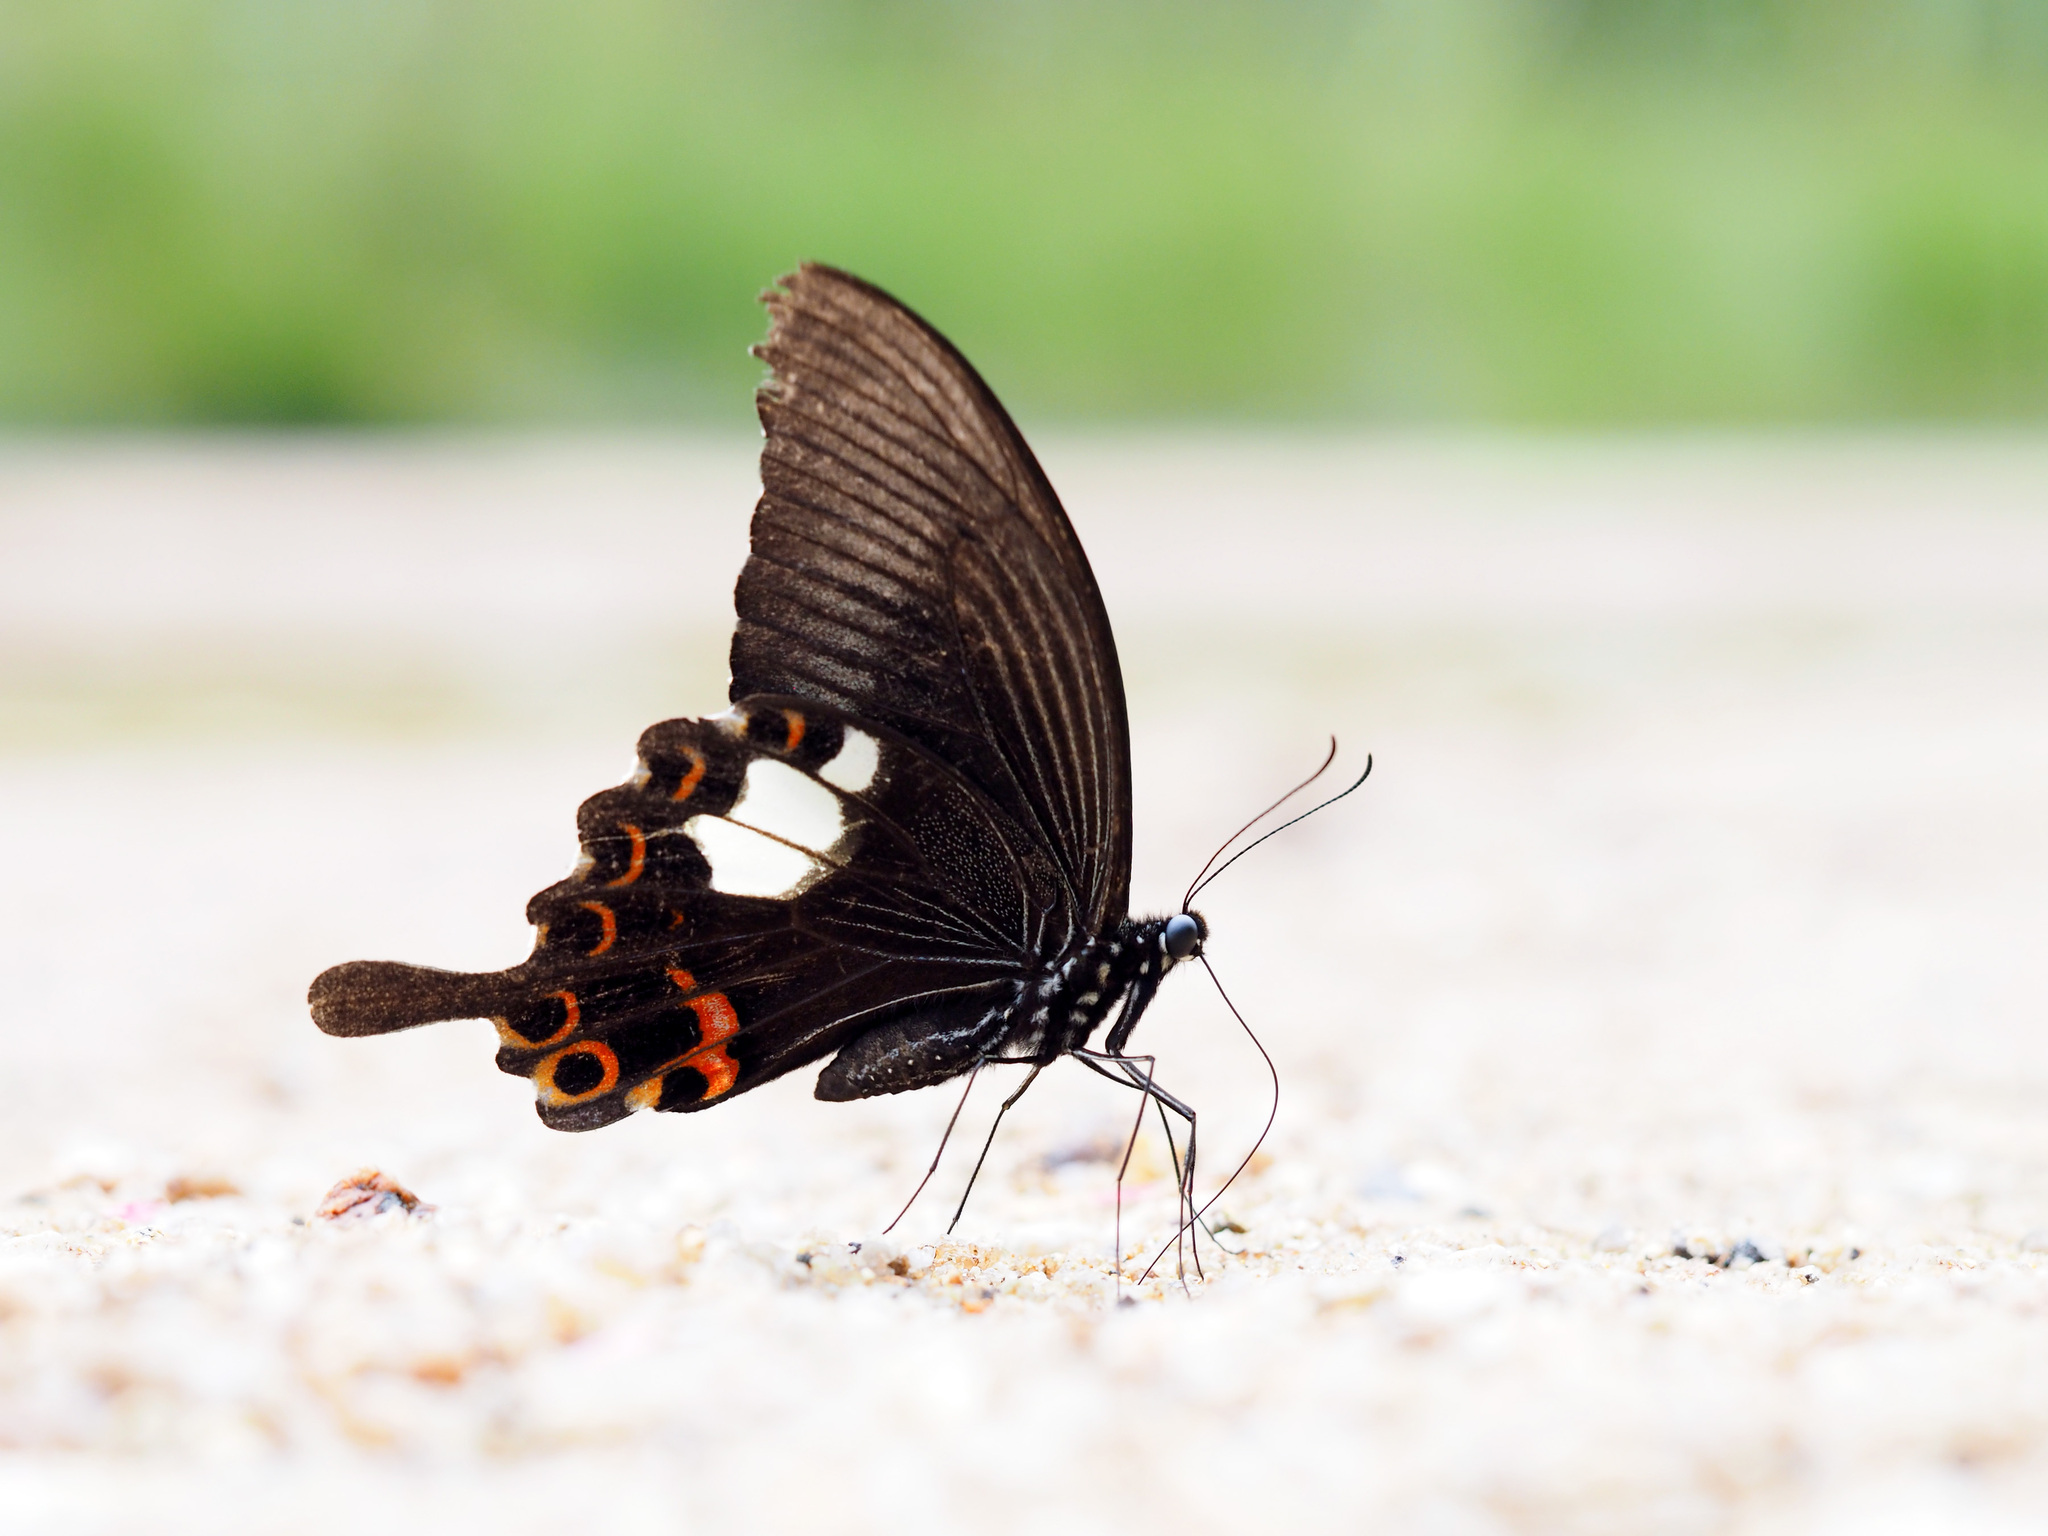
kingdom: Animalia
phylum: Arthropoda
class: Insecta
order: Lepidoptera
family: Papilionidae
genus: Papilio
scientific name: Papilio helenus
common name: Red helen
